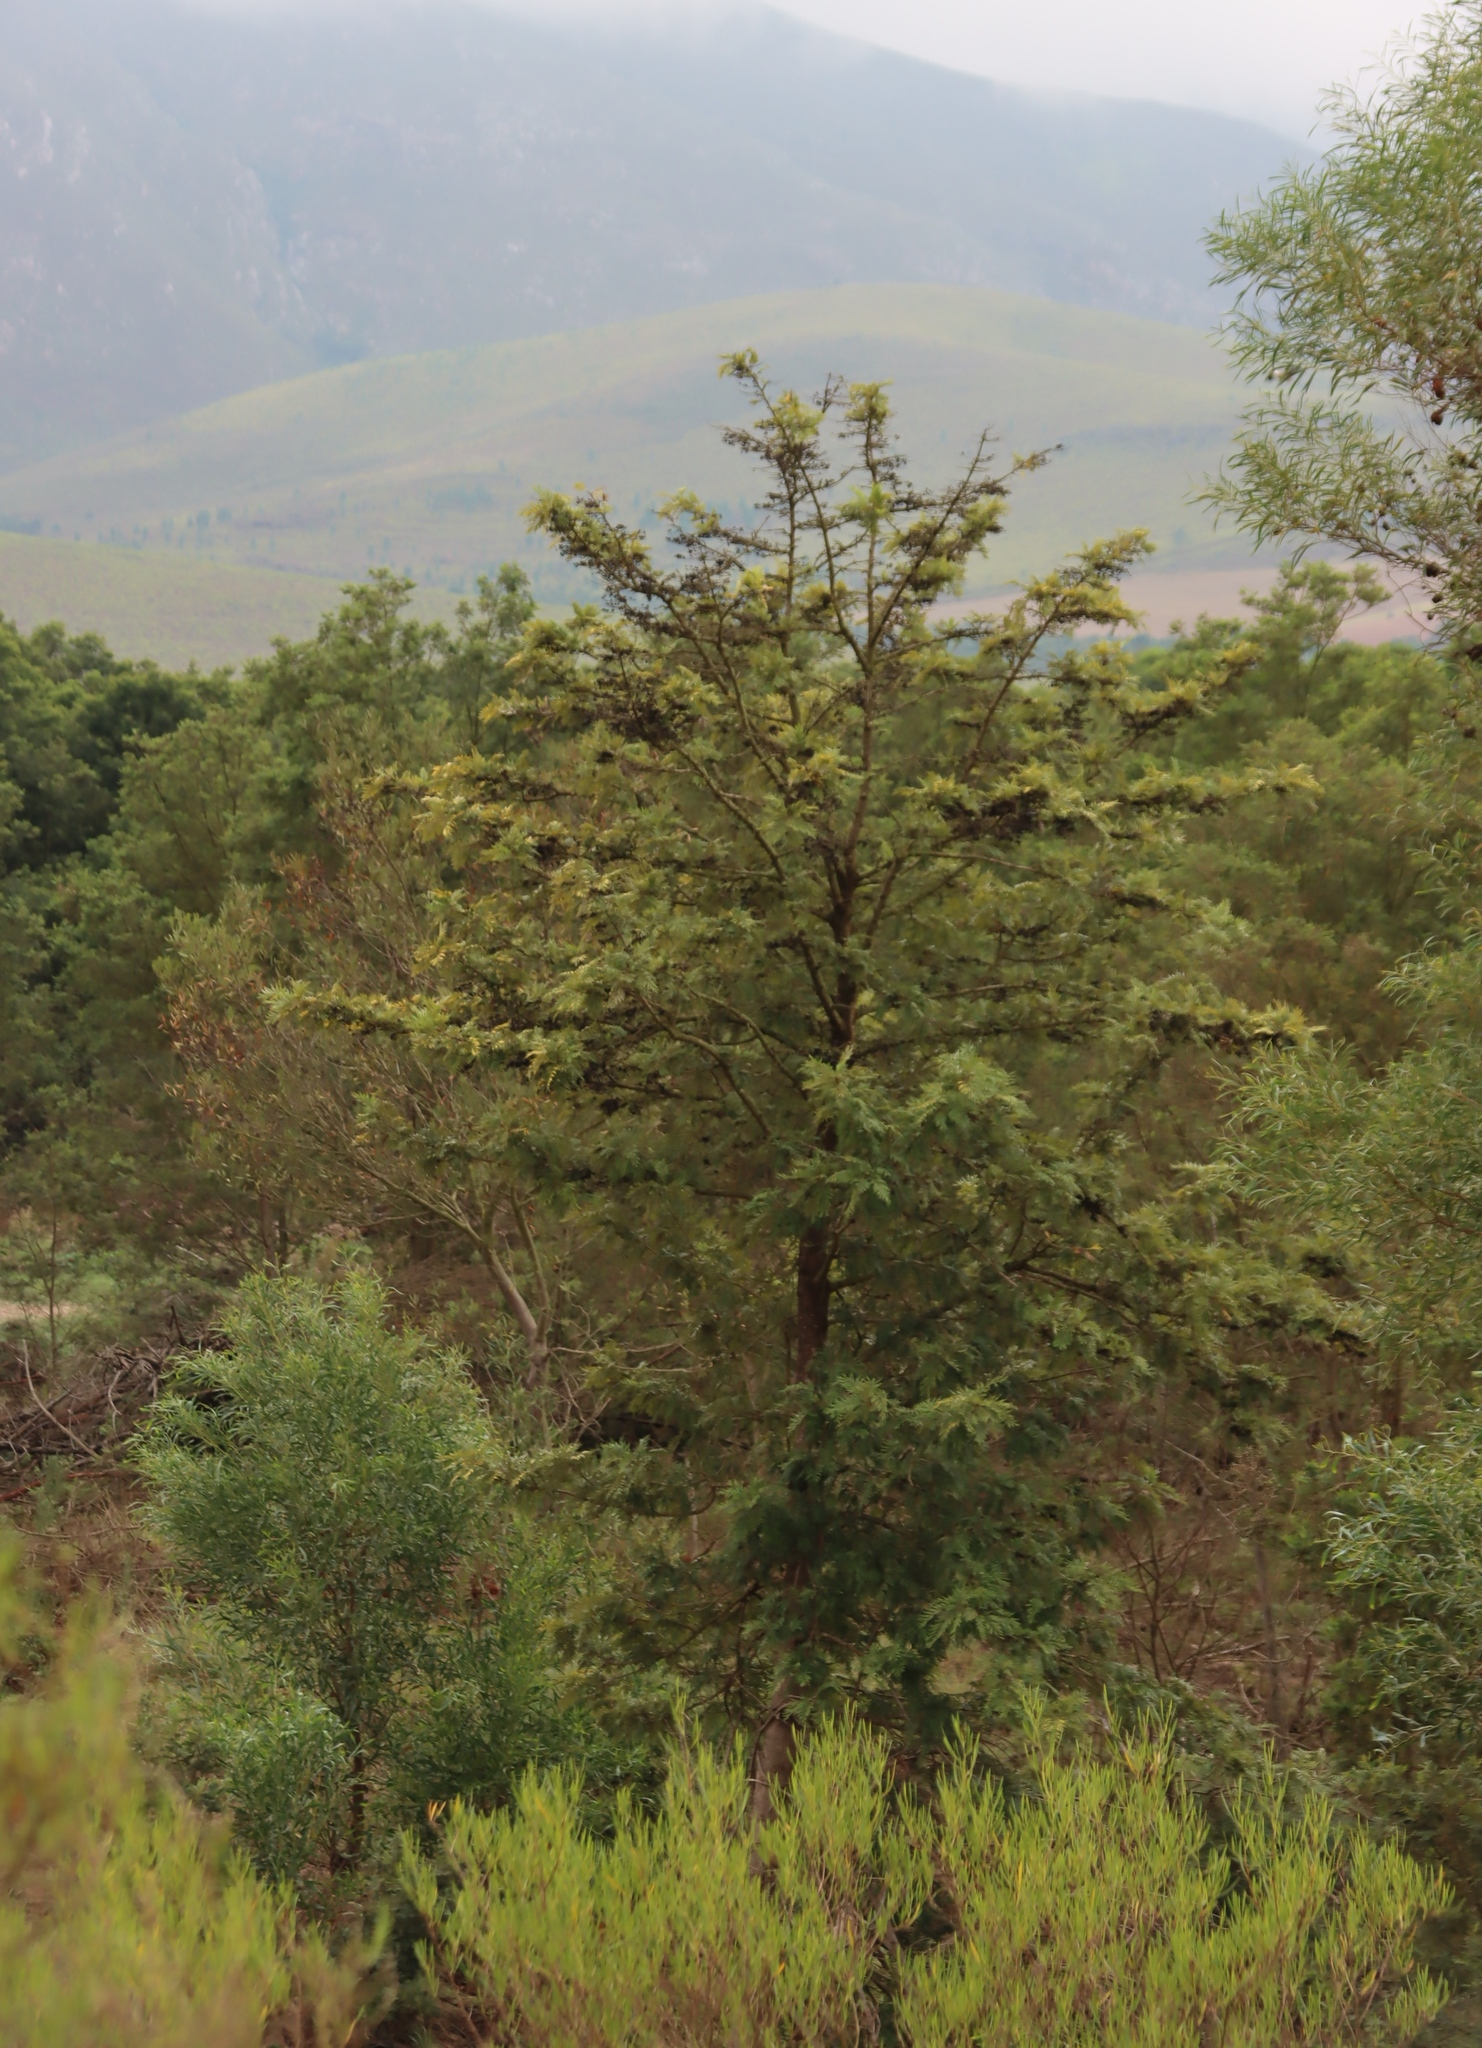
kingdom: Plantae
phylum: Tracheophyta
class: Magnoliopsida
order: Proteales
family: Proteaceae
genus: Grevillea
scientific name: Grevillea robusta
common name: Silkoak
